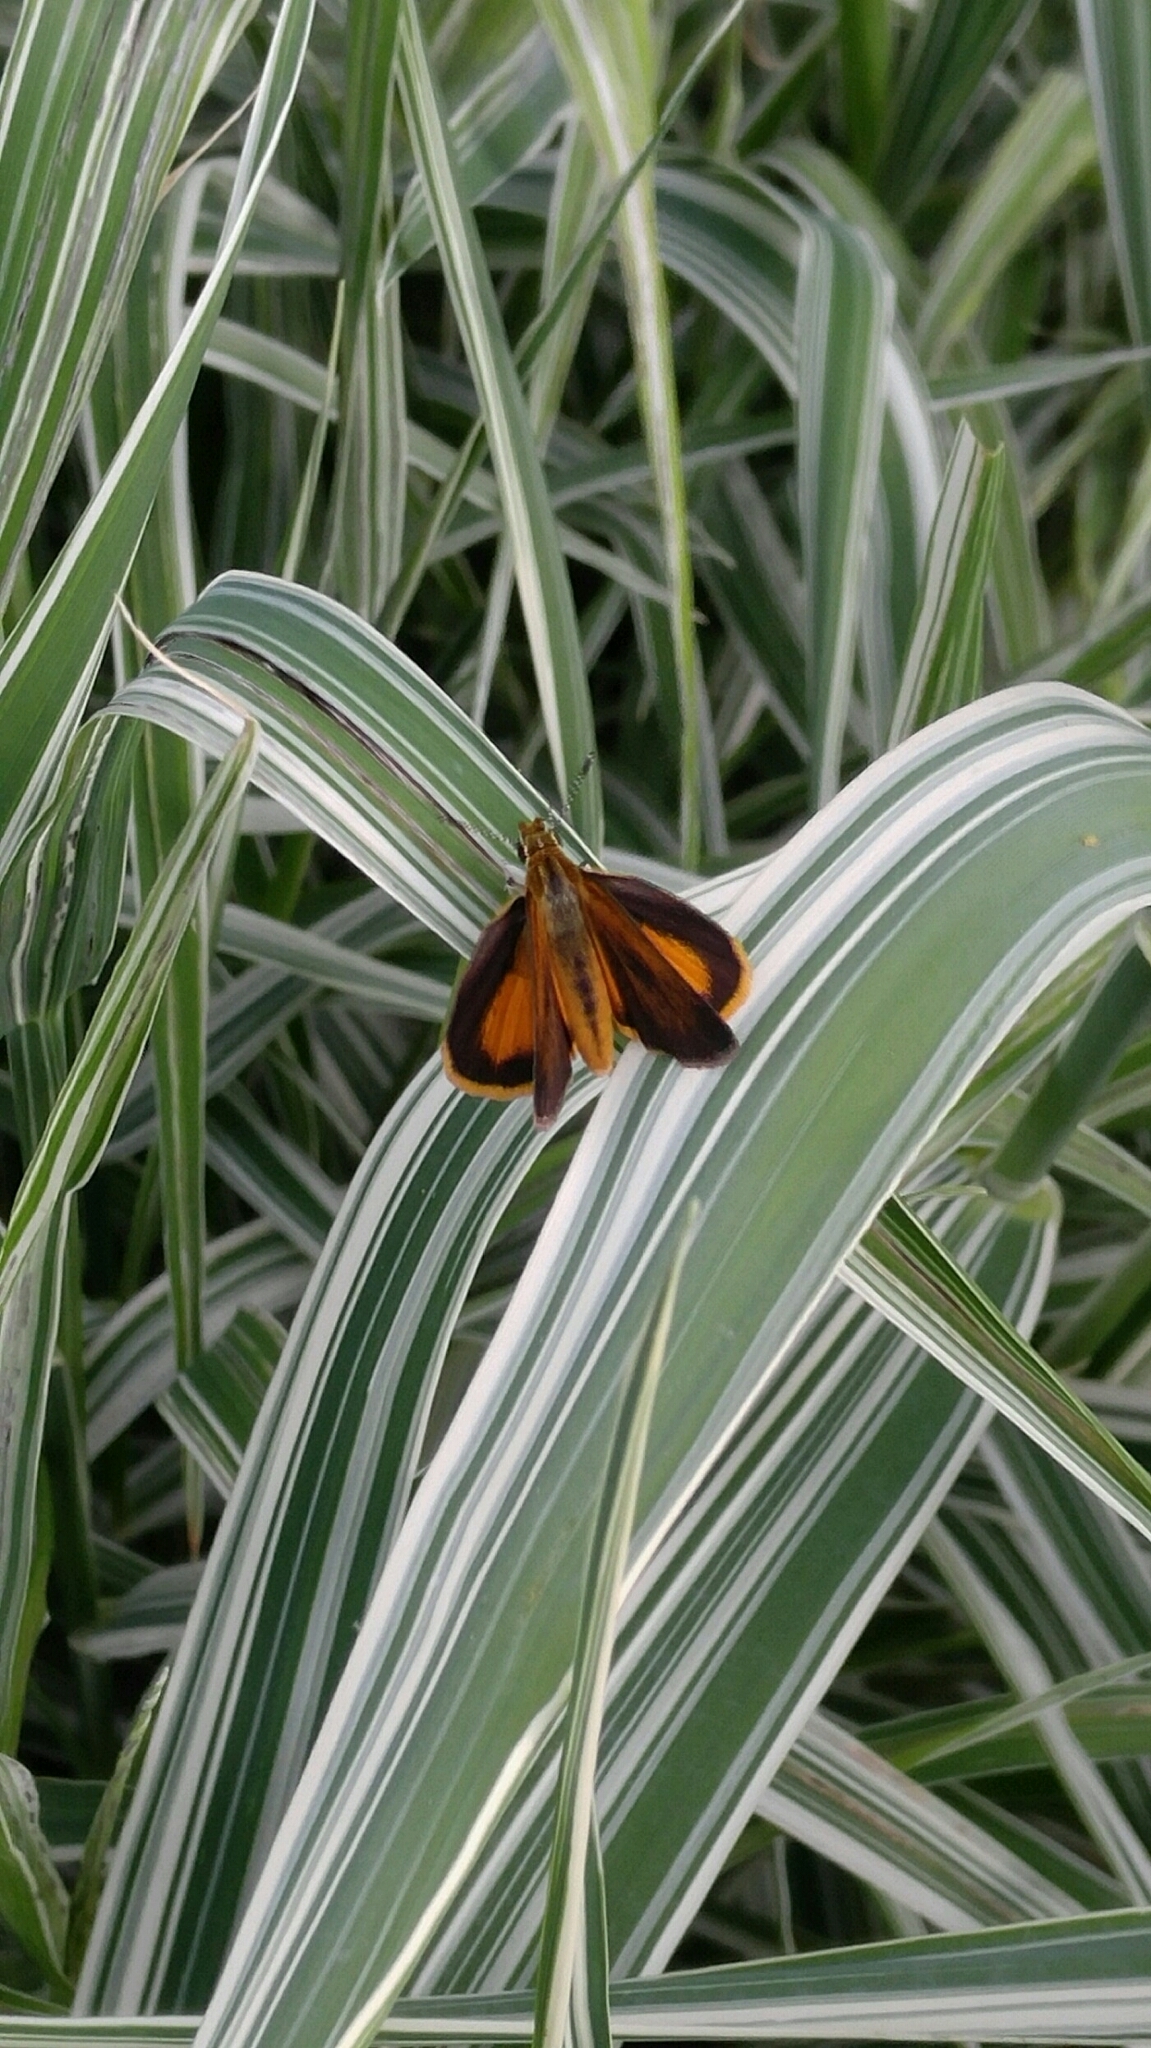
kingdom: Animalia
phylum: Arthropoda
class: Insecta
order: Lepidoptera
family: Hesperiidae
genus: Ancyloxypha
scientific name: Ancyloxypha numitor
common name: Least skipper
